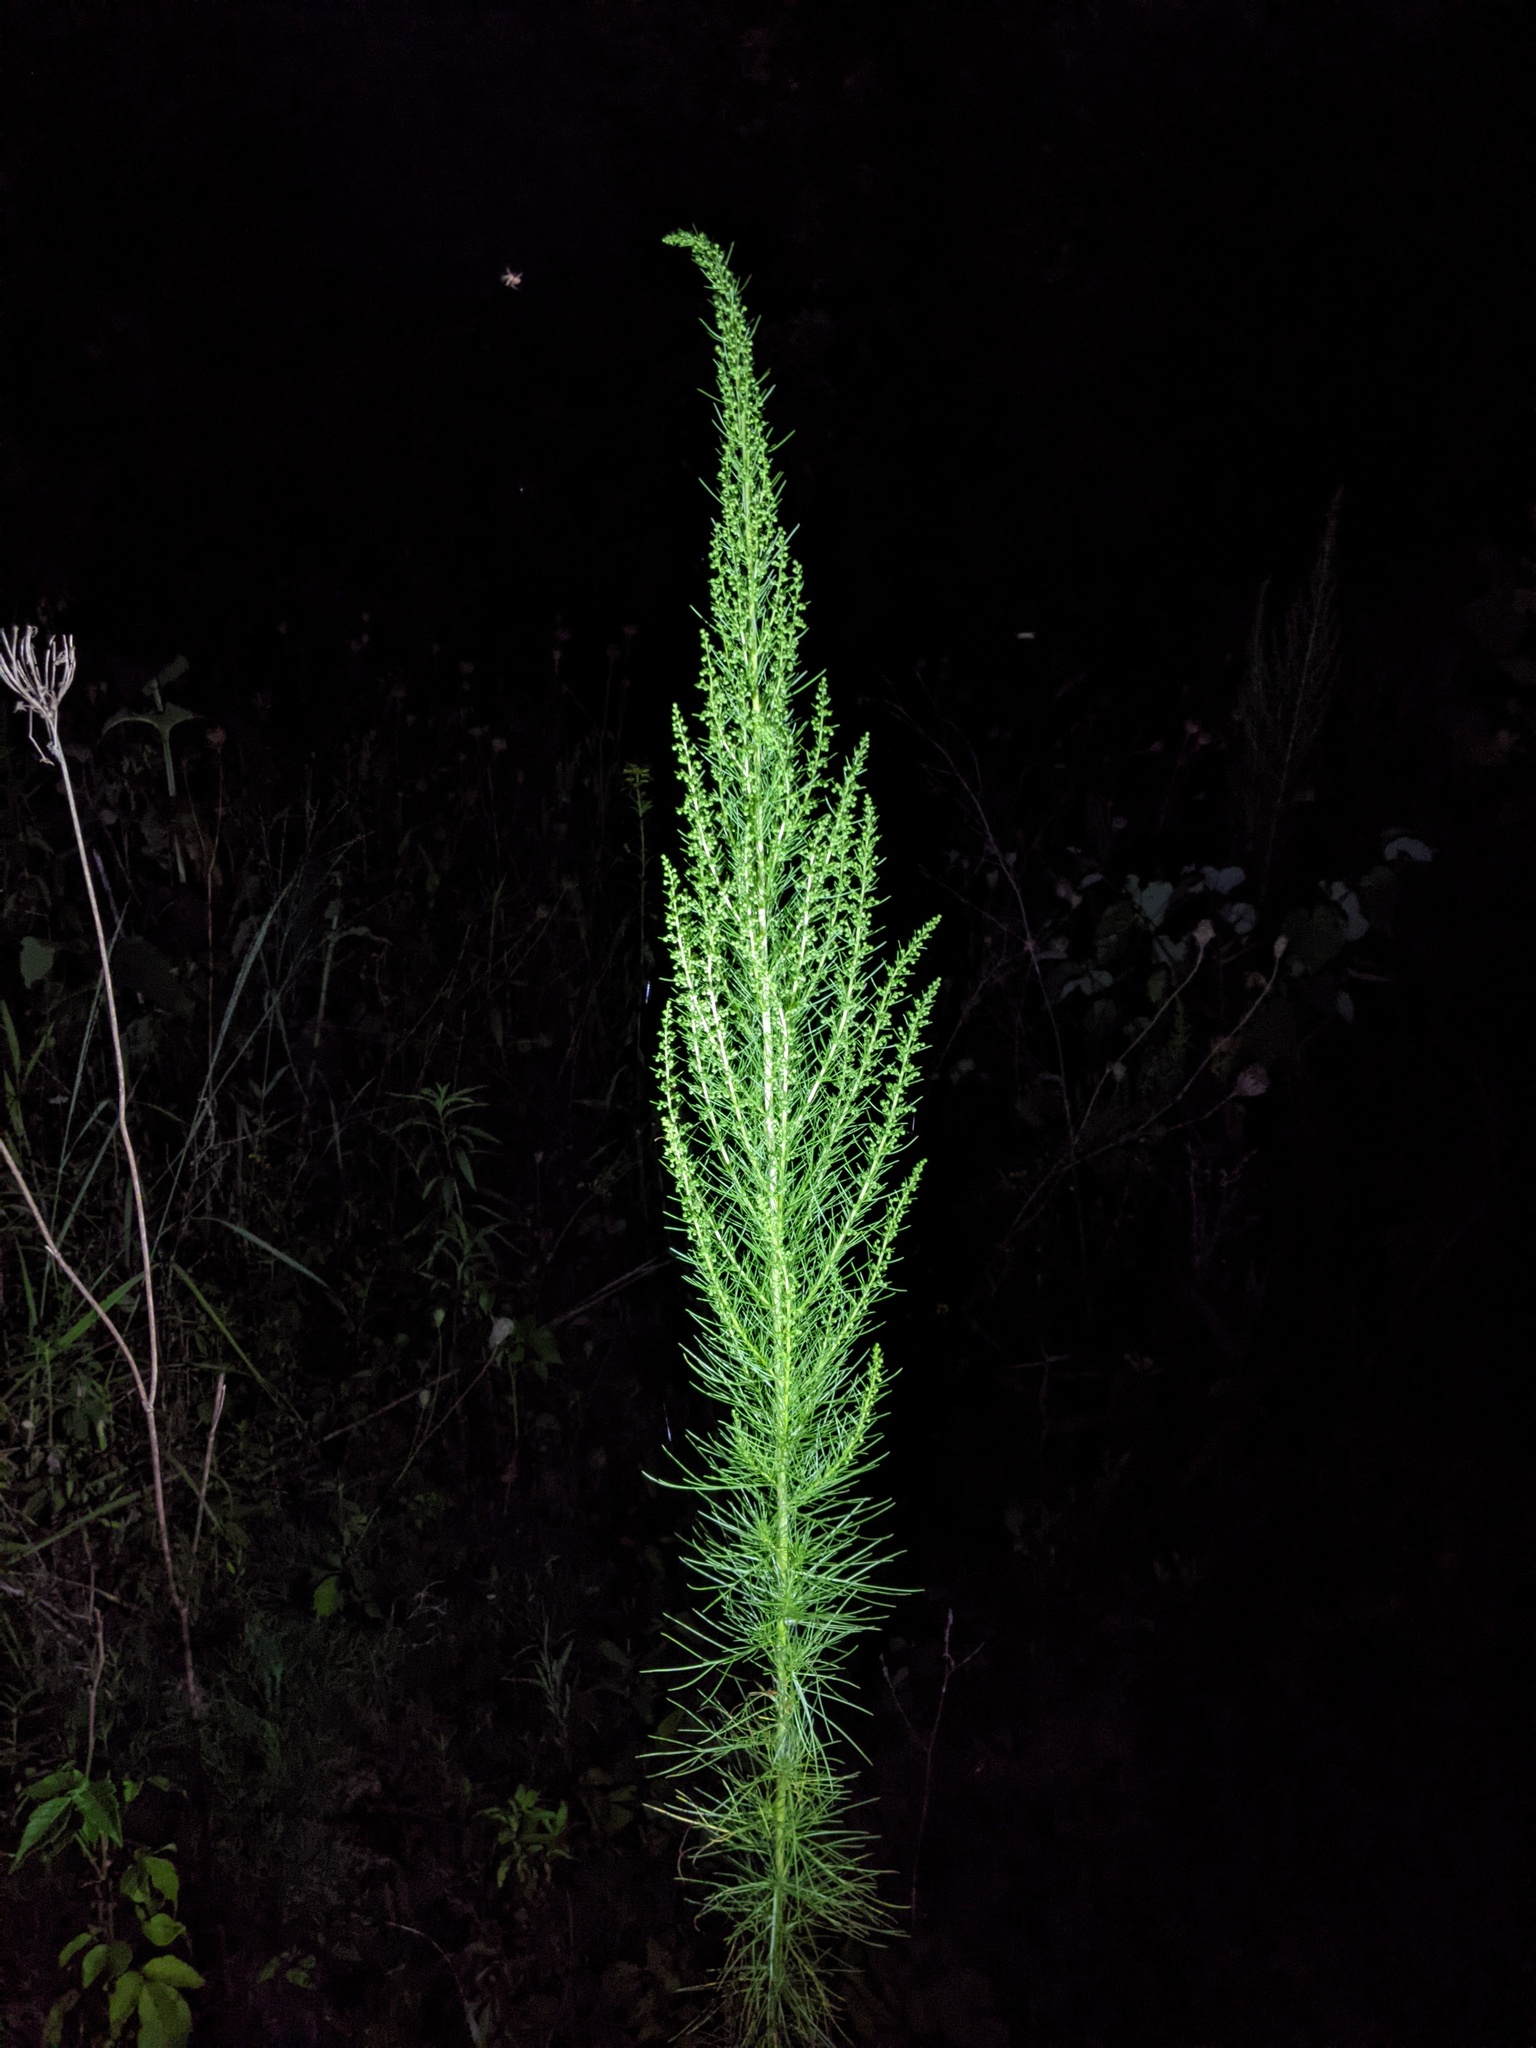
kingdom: Plantae
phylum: Tracheophyta
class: Magnoliopsida
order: Asterales
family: Asteraceae
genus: Eupatorium
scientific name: Eupatorium capillifolium
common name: Dog-fennel
